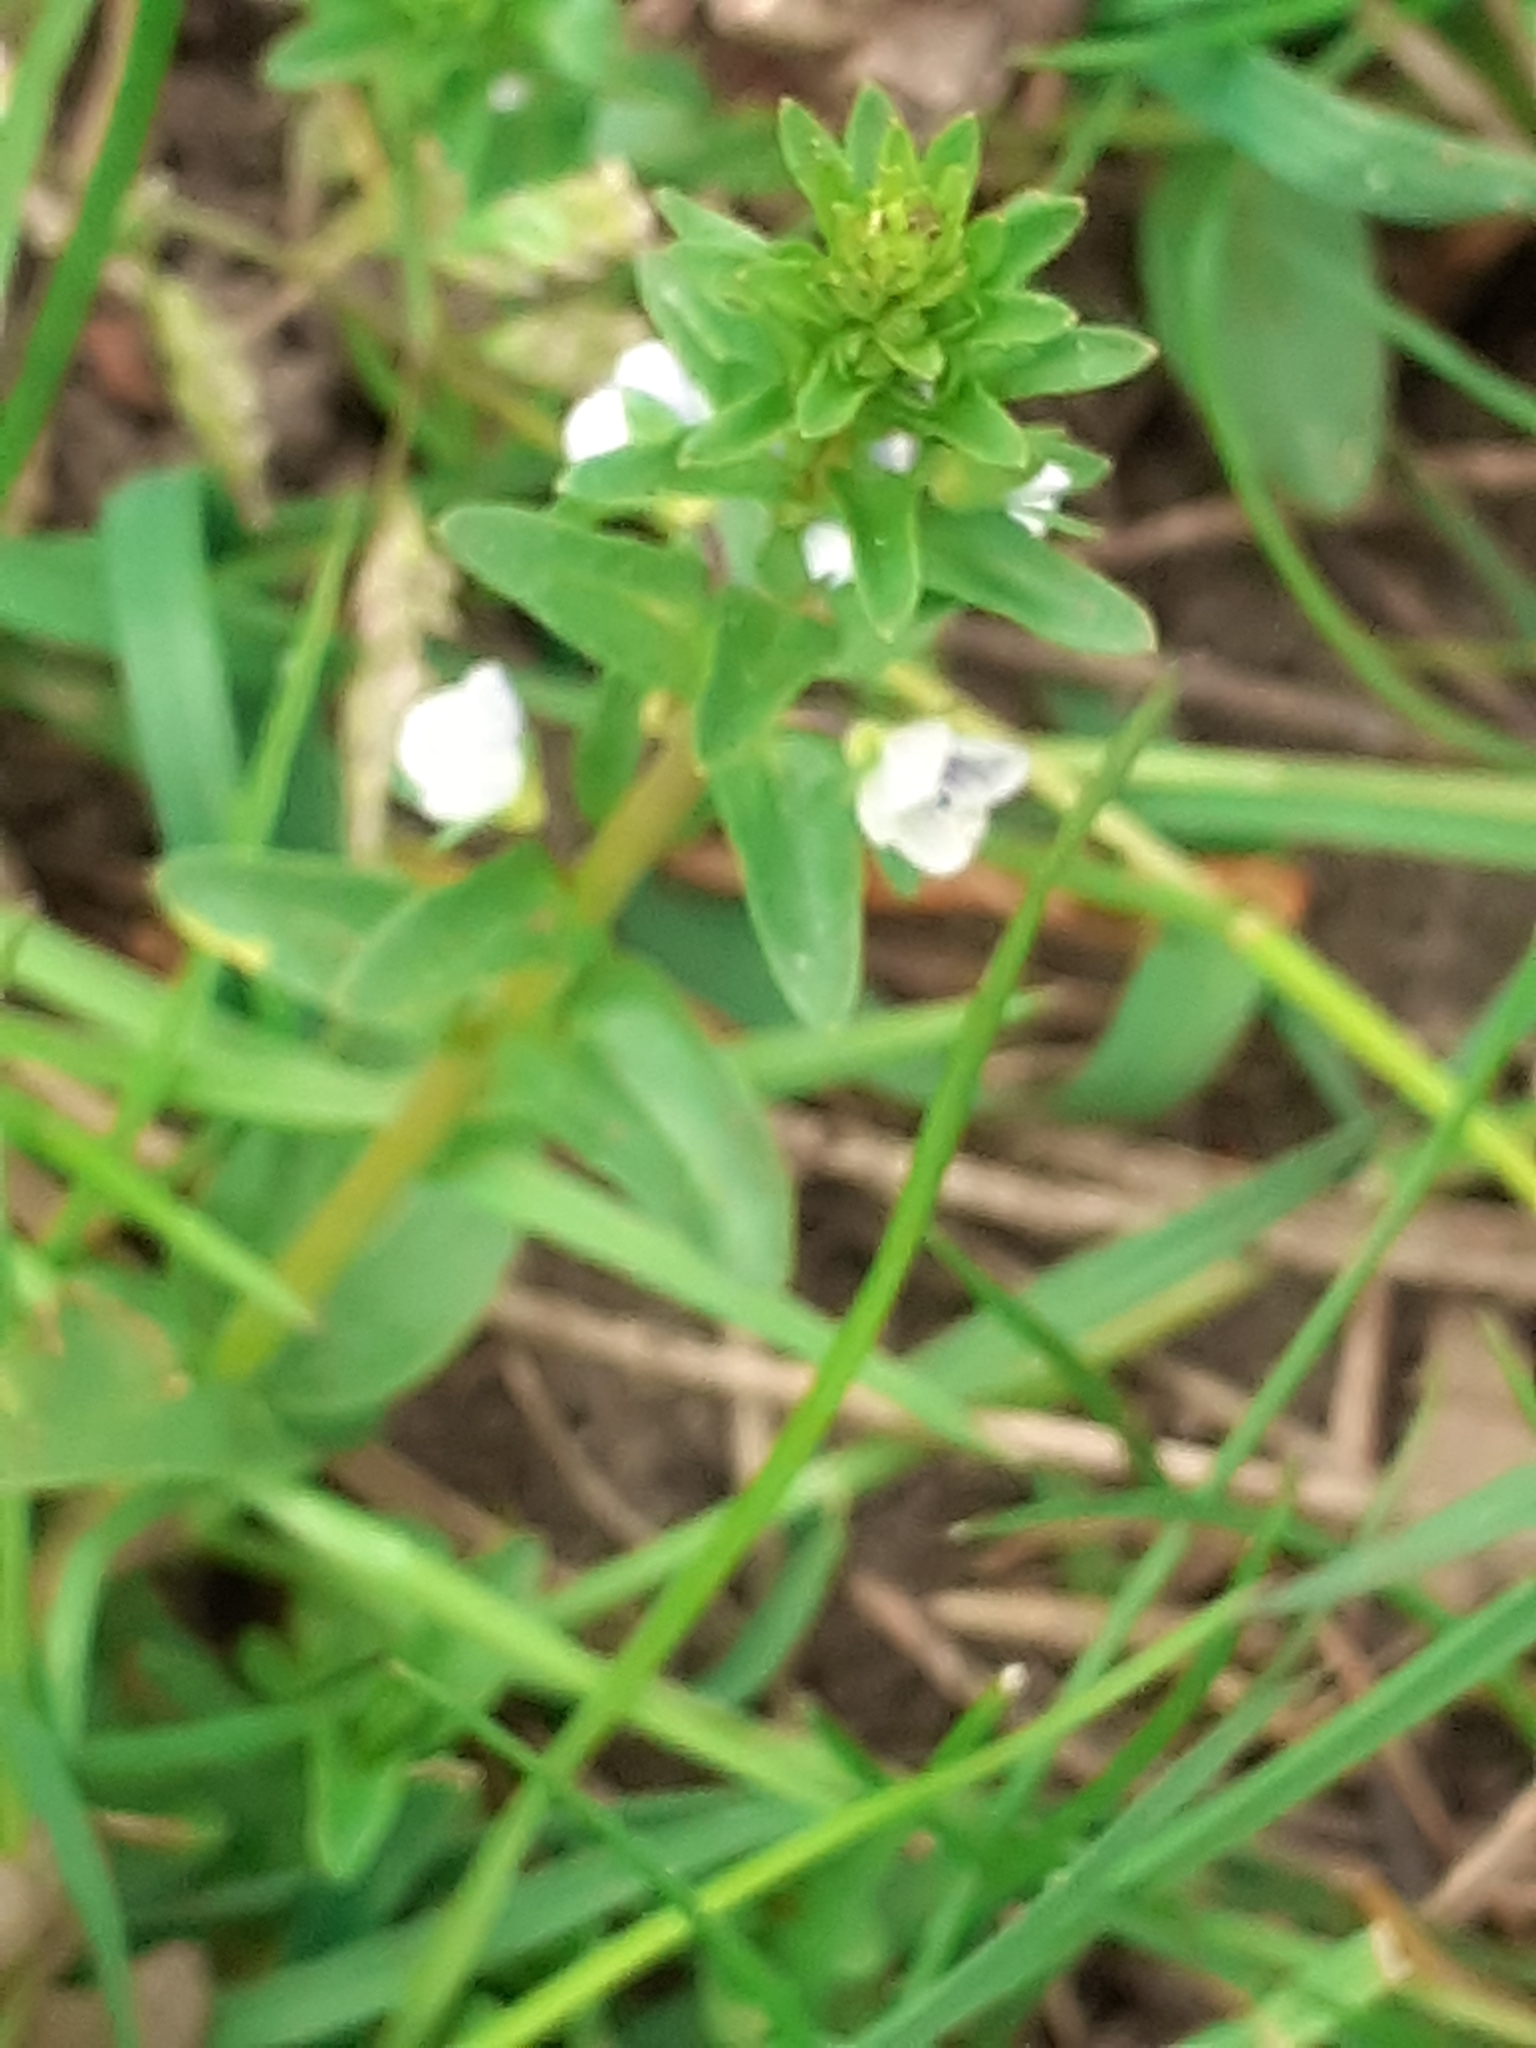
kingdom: Plantae
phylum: Tracheophyta
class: Magnoliopsida
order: Lamiales
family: Plantaginaceae
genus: Veronica
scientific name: Veronica serpyllifolia
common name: Thyme-leaved speedwell
